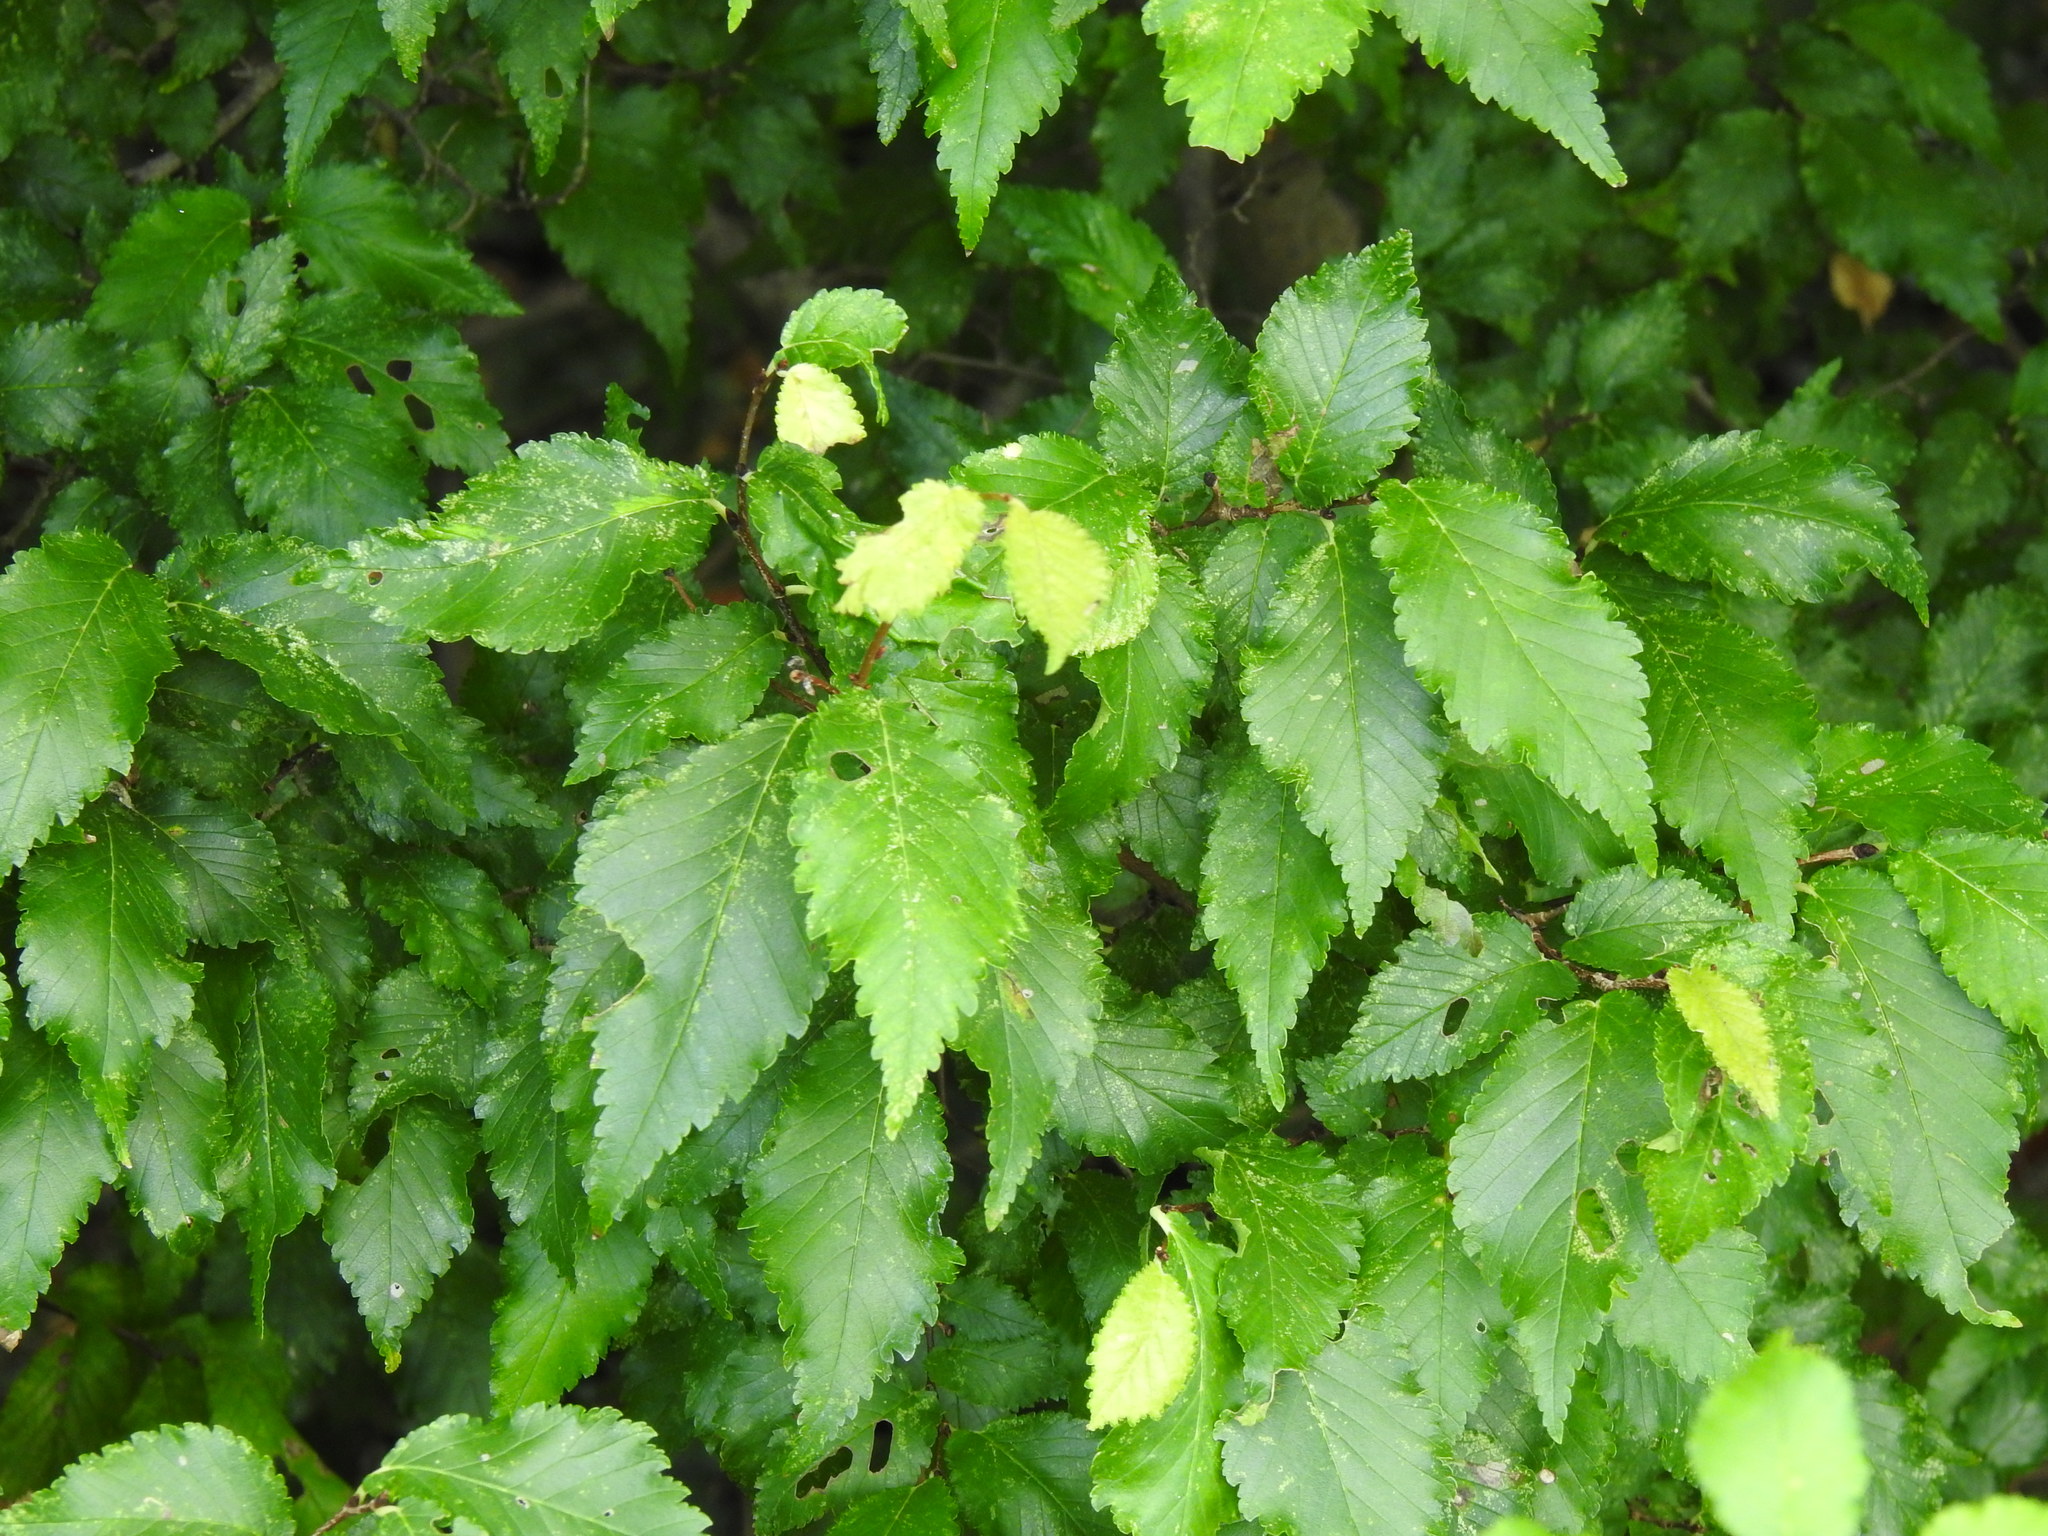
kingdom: Plantae
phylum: Tracheophyta
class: Magnoliopsida
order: Rosales
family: Ulmaceae
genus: Ulmus
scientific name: Ulmus minor
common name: Small-leaved elm
